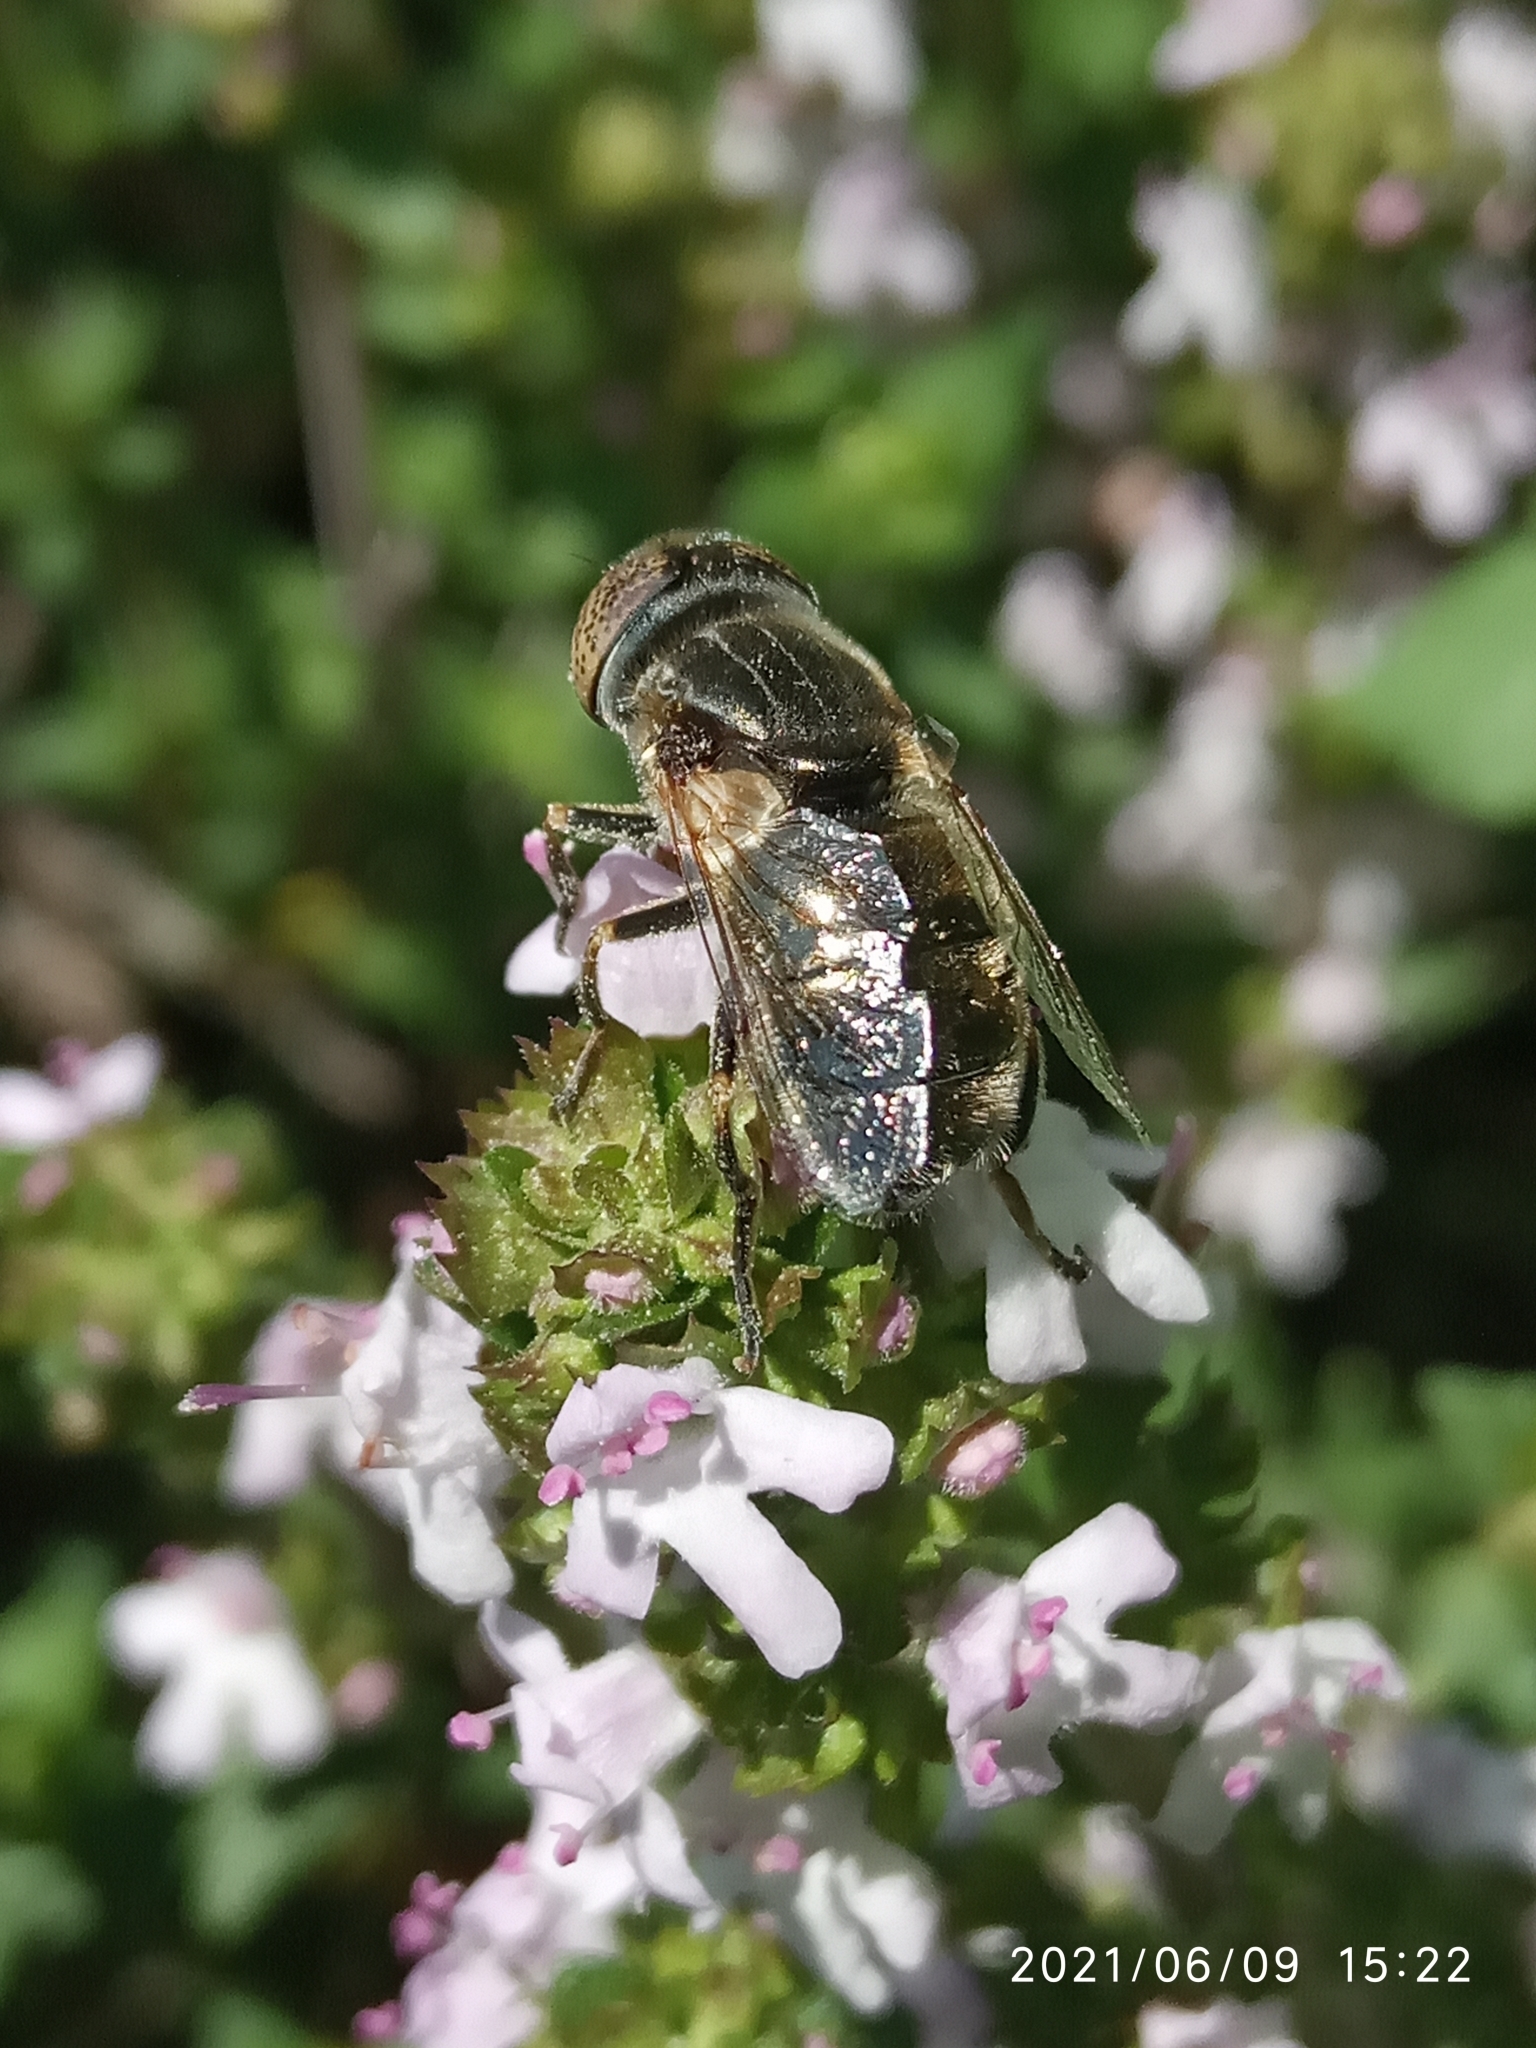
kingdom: Animalia
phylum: Arthropoda
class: Insecta
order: Diptera
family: Syrphidae
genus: Eristalinus
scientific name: Eristalinus aeneus
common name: Syrphid fly
